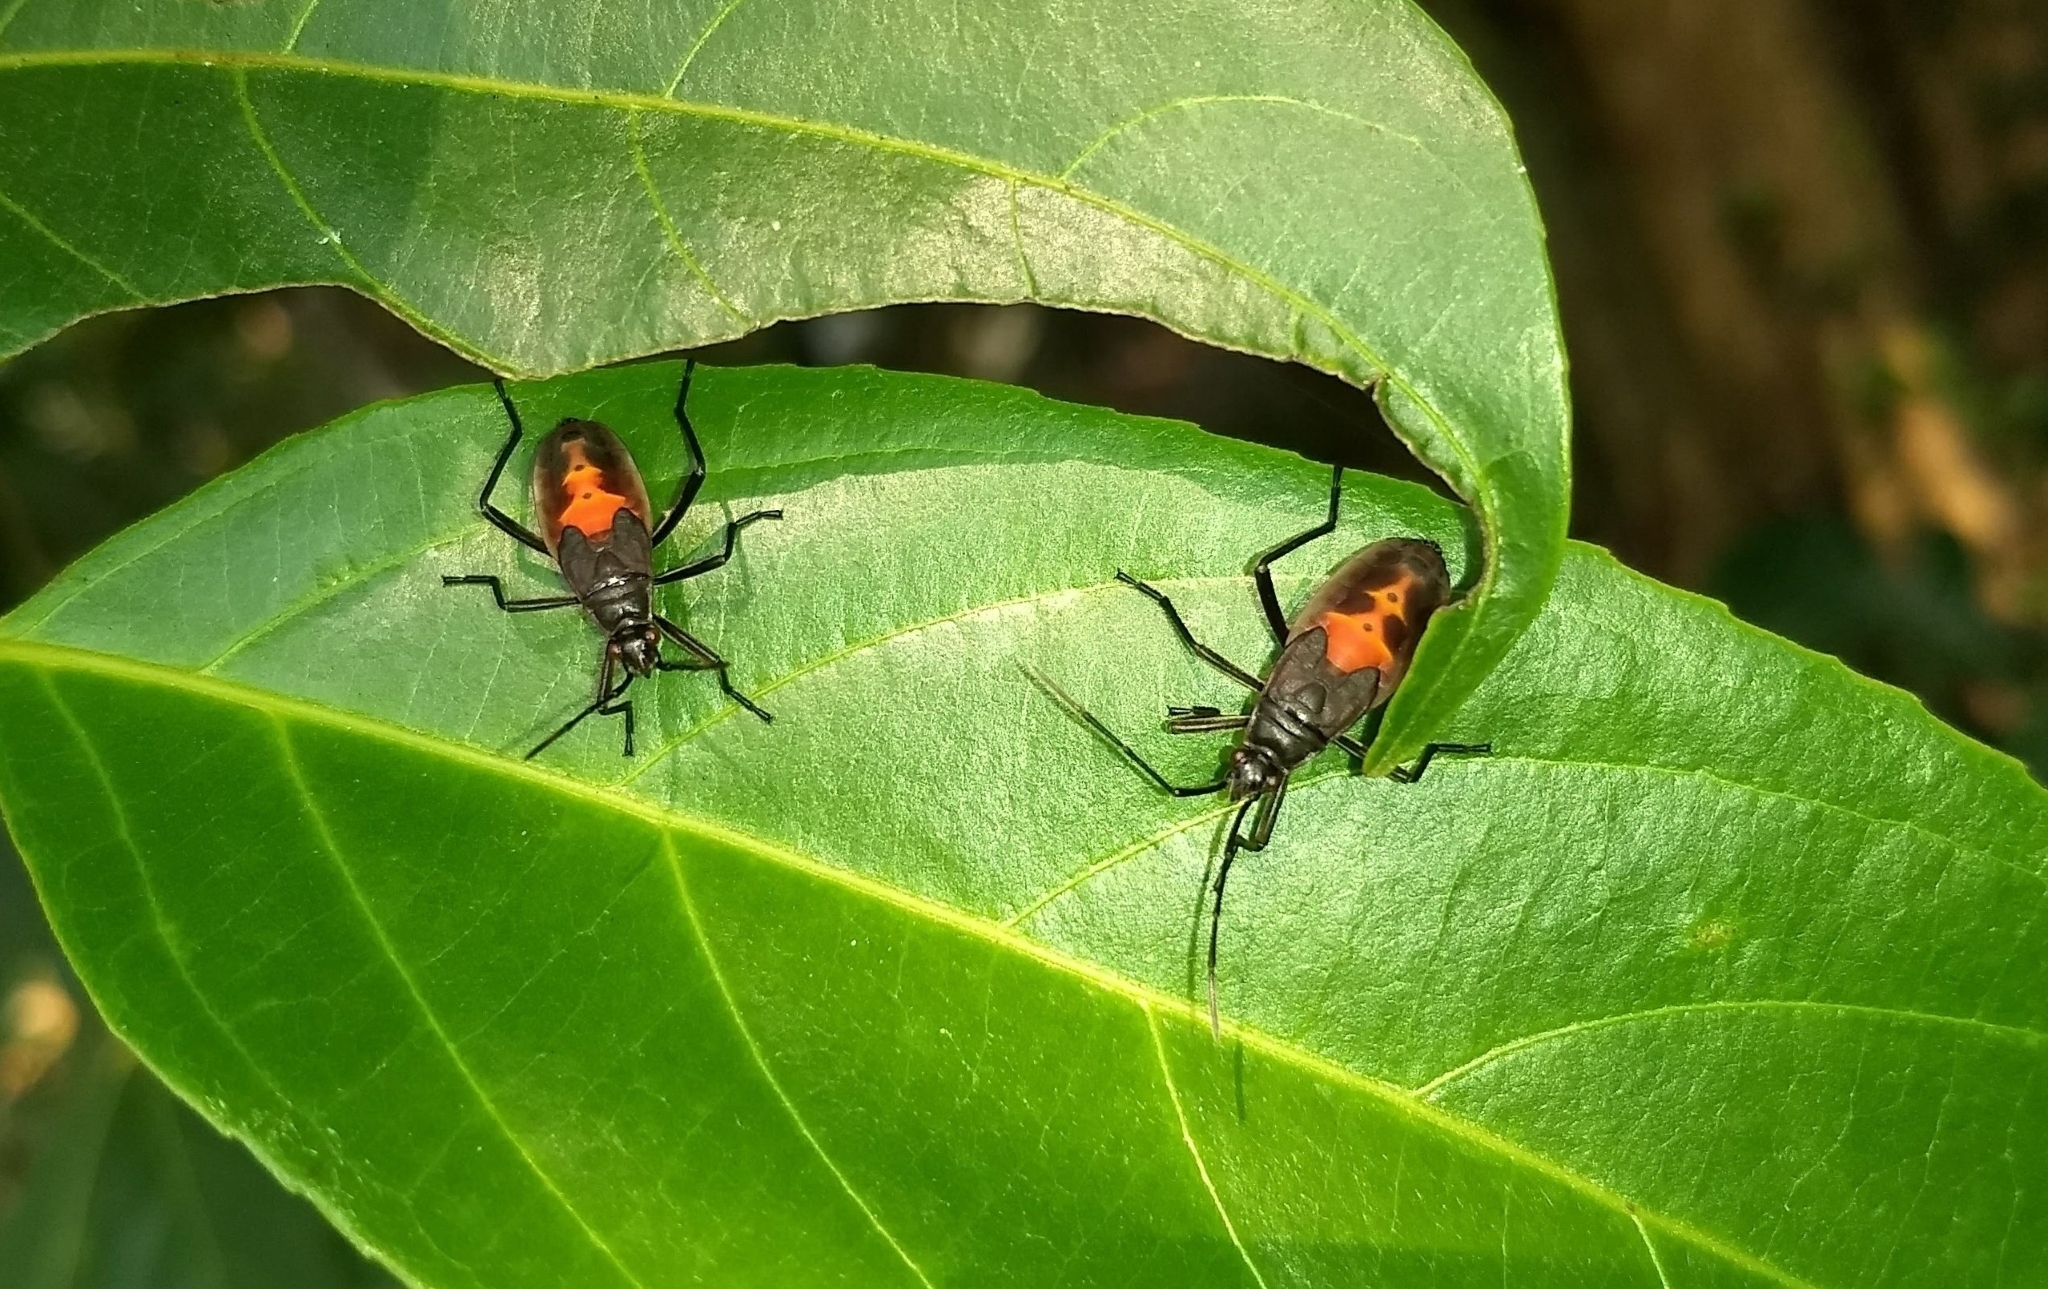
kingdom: Animalia
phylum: Arthropoda
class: Insecta
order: Hemiptera
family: Pyrrhocoridae
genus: Melamphaus
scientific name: Melamphaus
